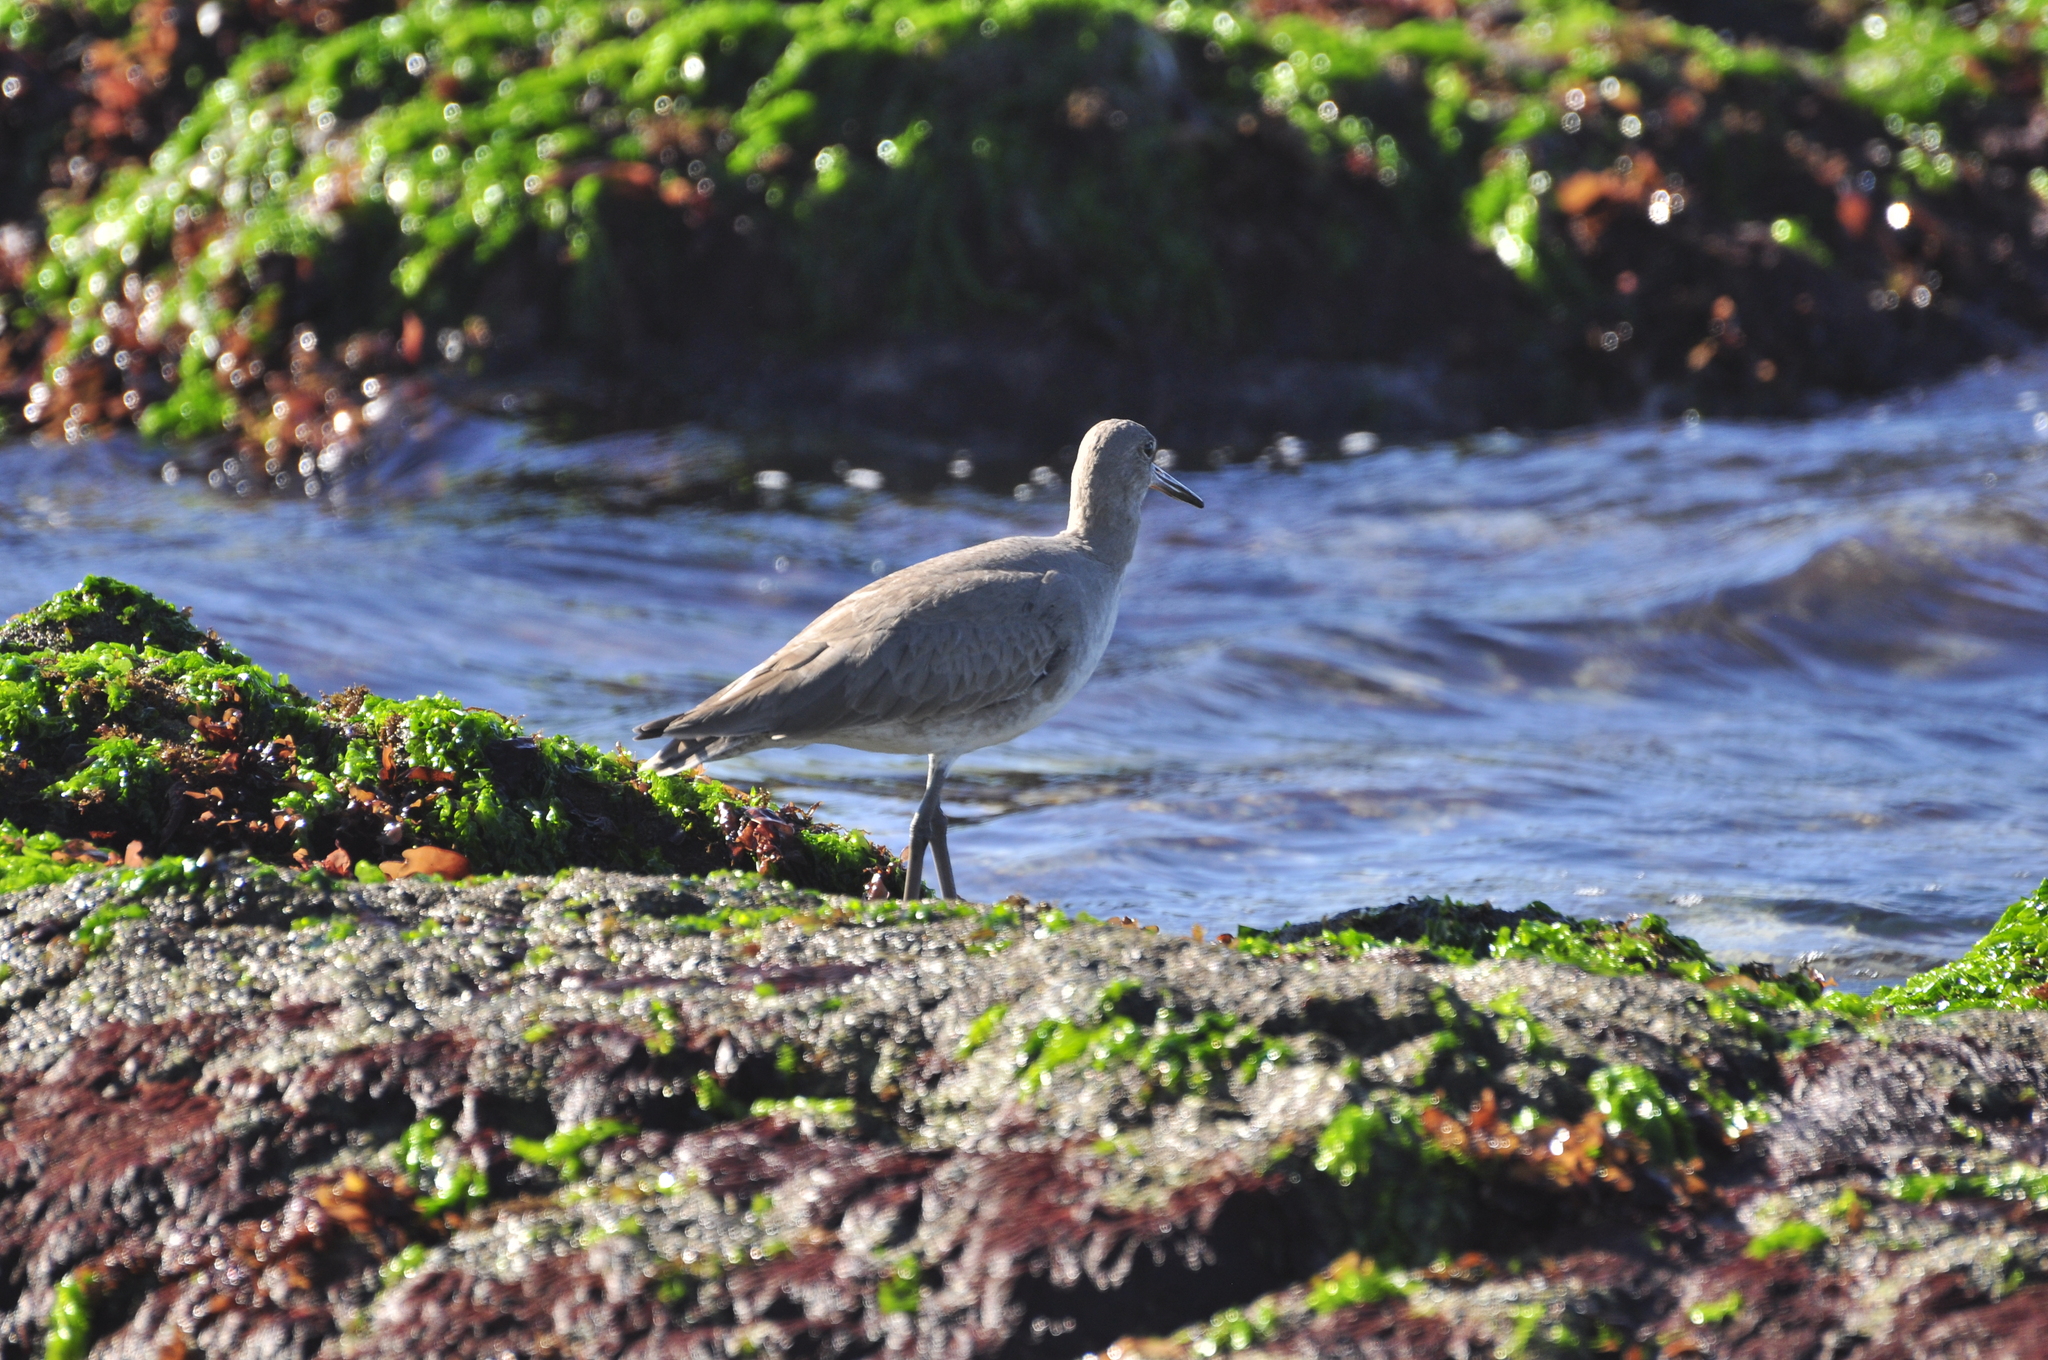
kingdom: Animalia
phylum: Chordata
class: Aves
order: Charadriiformes
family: Scolopacidae
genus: Tringa
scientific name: Tringa semipalmata
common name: Willet
